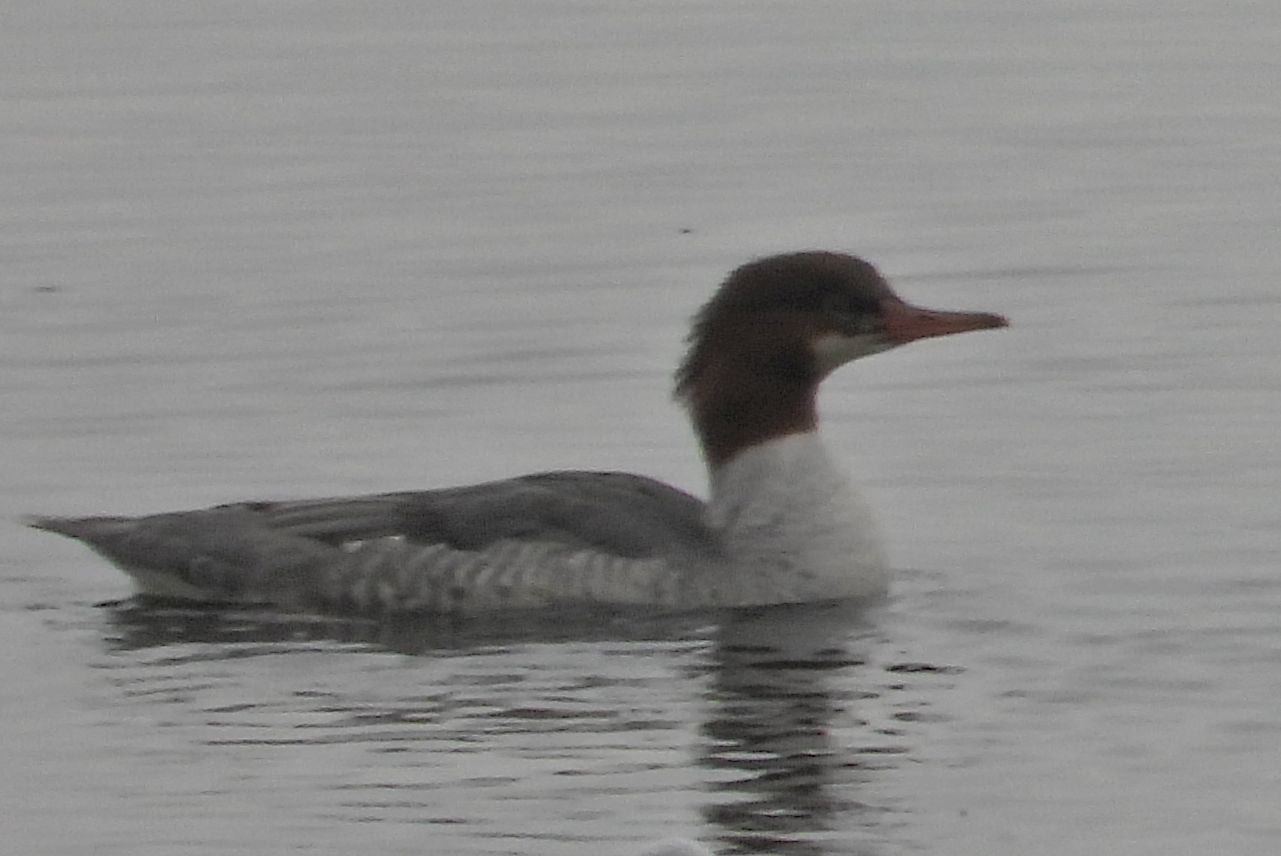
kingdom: Animalia
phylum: Chordata
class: Aves
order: Anseriformes
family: Anatidae
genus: Mergus
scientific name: Mergus merganser
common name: Common merganser
